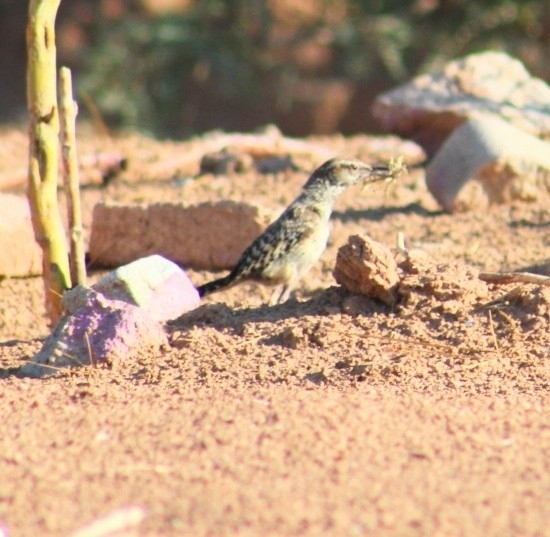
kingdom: Animalia
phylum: Chordata
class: Aves
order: Passeriformes
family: Troglodytidae
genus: Campylorhynchus
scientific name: Campylorhynchus brunneicapillus
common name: Cactus wren
